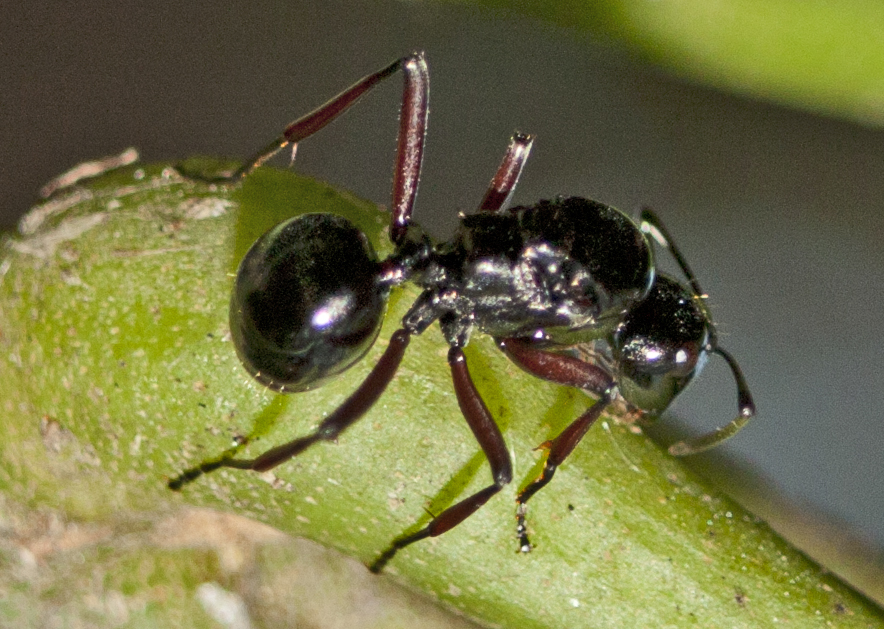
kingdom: Animalia
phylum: Arthropoda
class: Insecta
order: Hymenoptera
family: Formicidae
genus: Polyrhachis
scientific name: Polyrhachis australis
